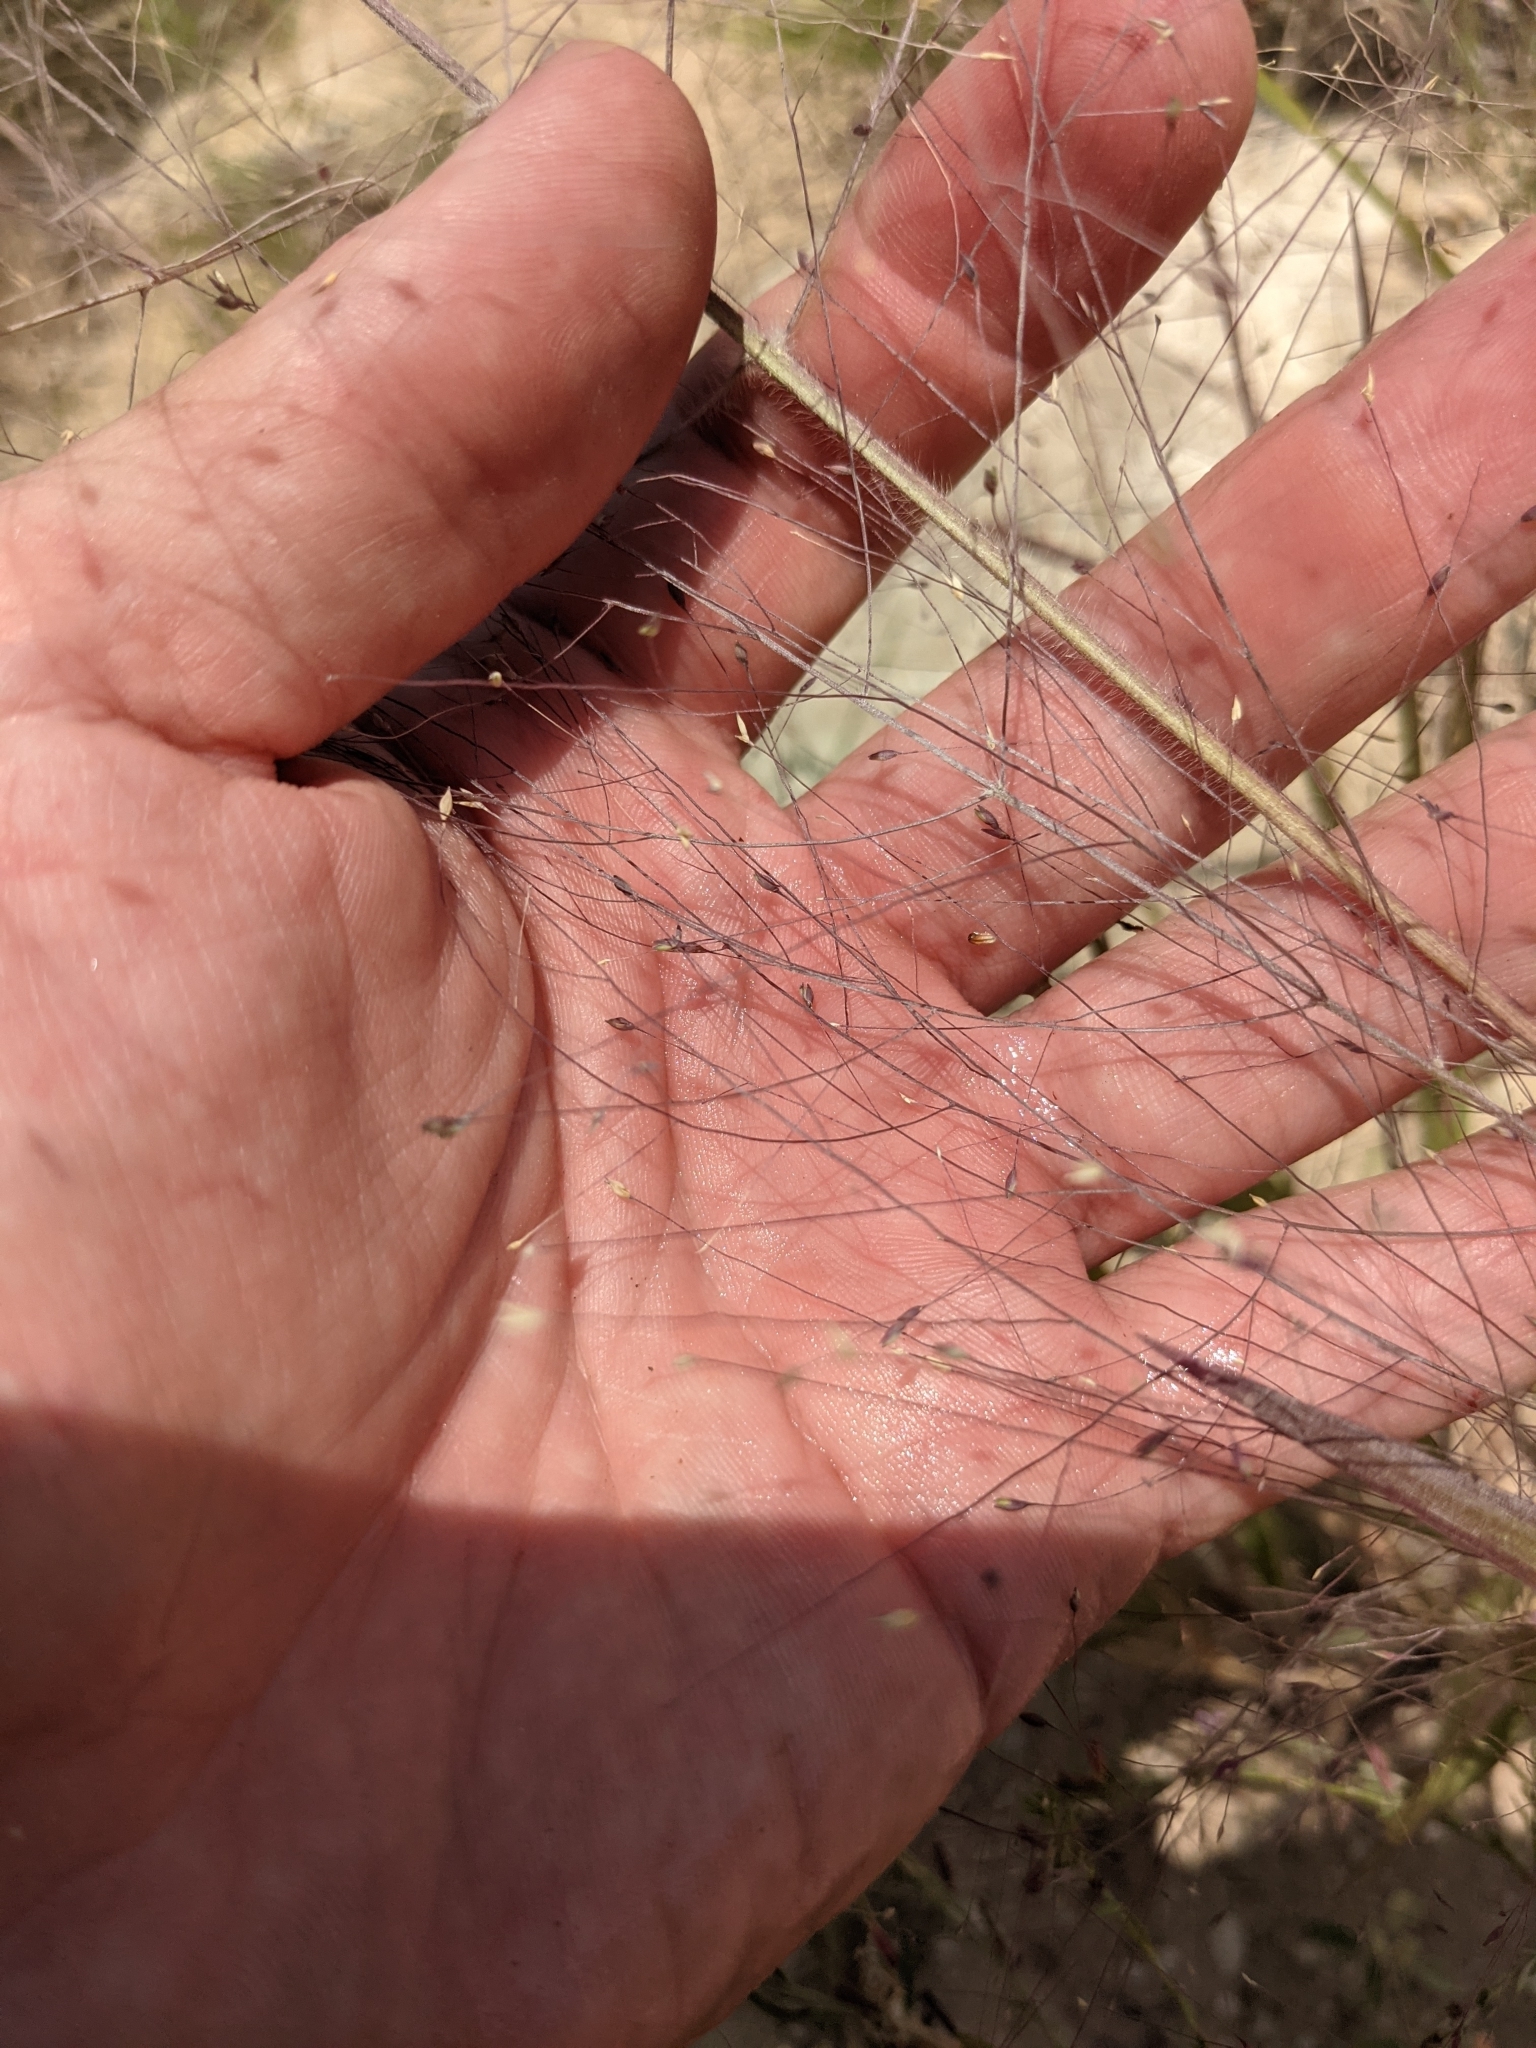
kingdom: Plantae
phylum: Tracheophyta
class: Liliopsida
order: Poales
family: Poaceae
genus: Panicum
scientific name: Panicum capillare
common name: Witch-grass
